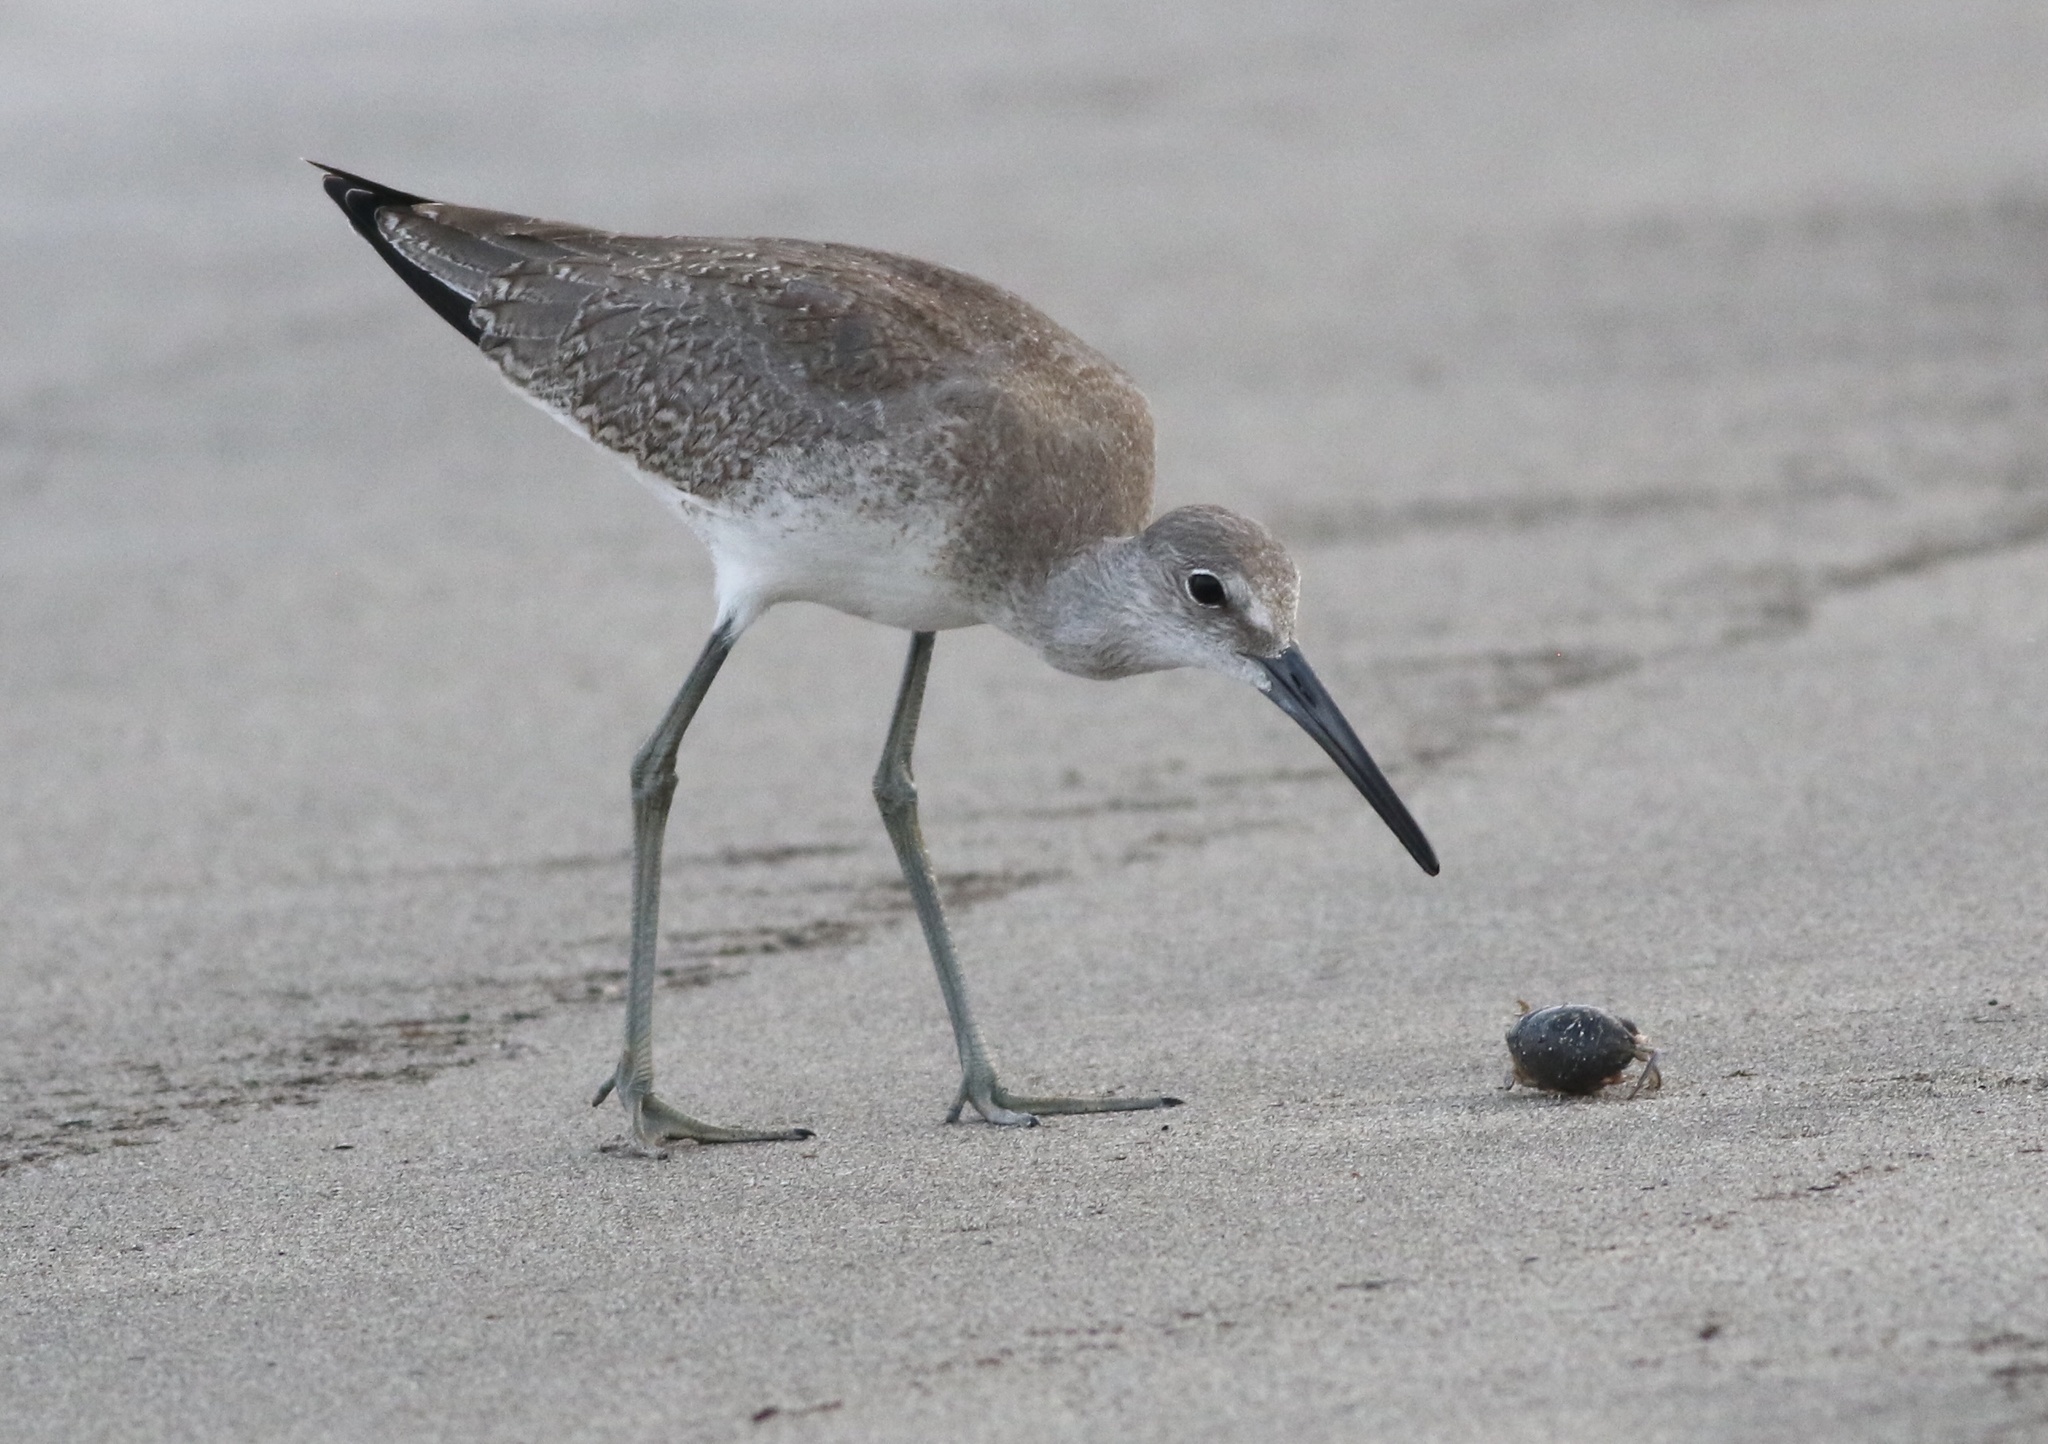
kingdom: Animalia
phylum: Chordata
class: Aves
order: Charadriiformes
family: Scolopacidae
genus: Tringa
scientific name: Tringa semipalmata
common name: Willet
